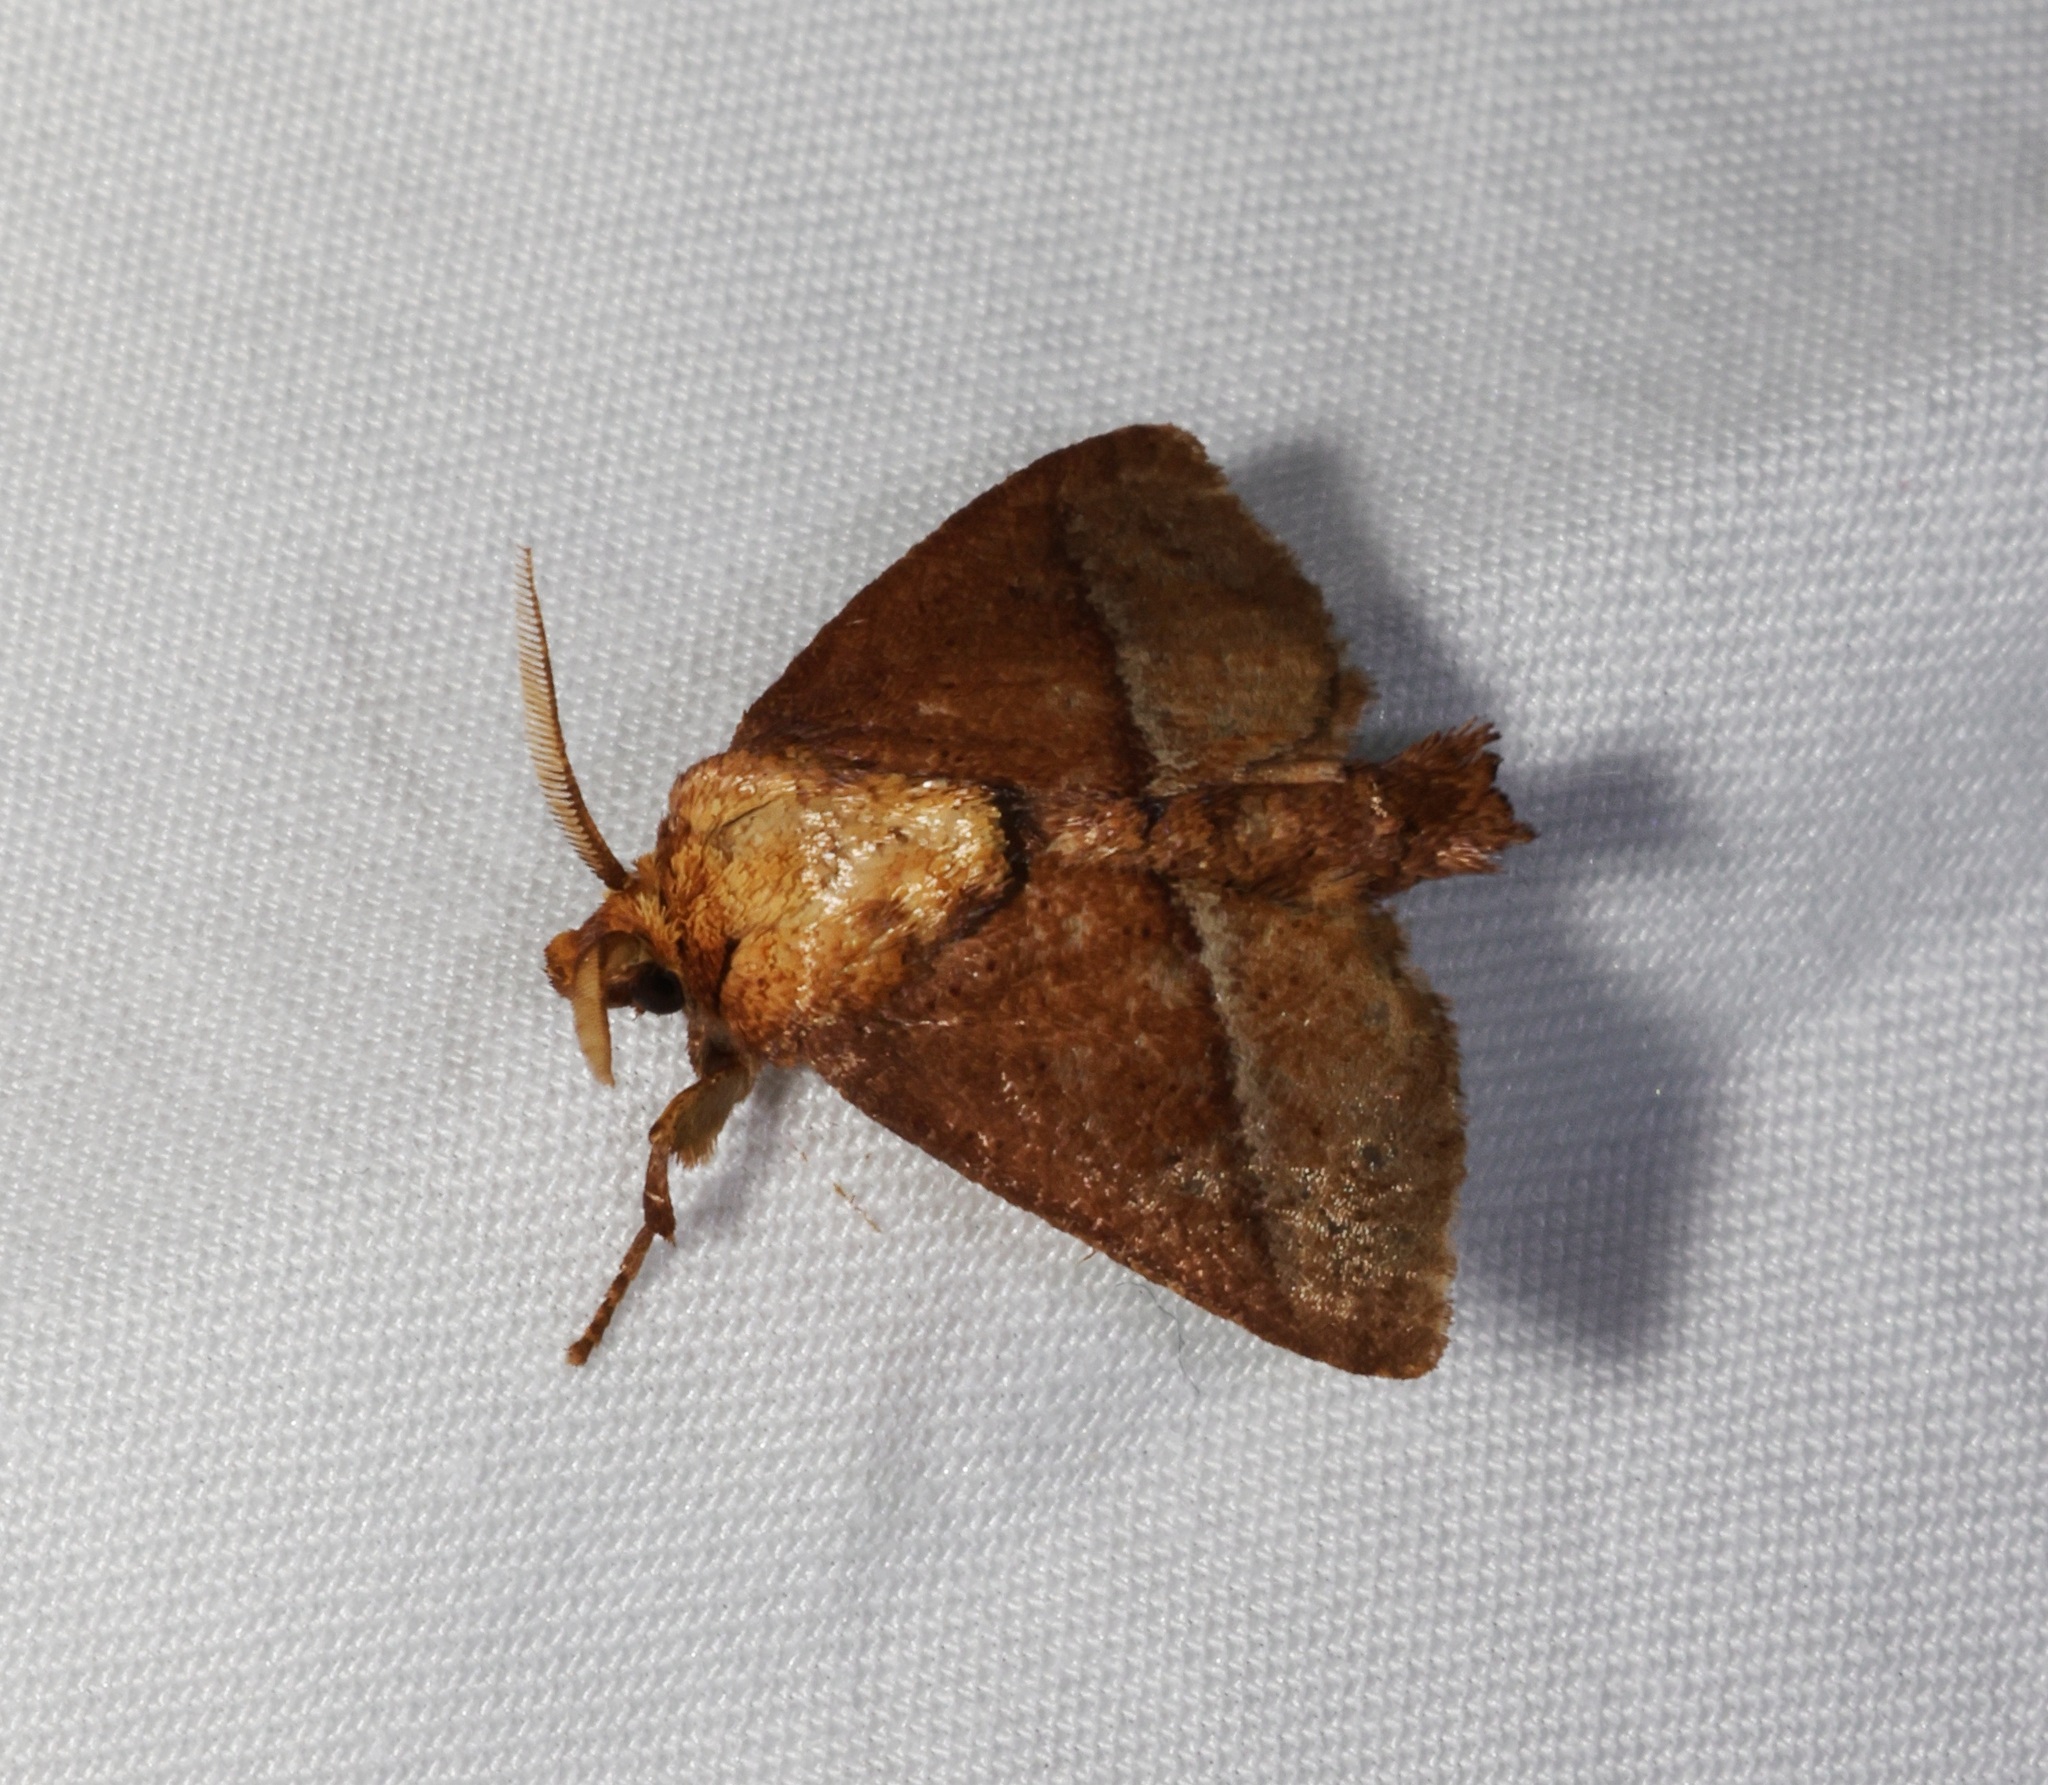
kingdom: Animalia
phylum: Arthropoda
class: Insecta
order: Lepidoptera
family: Limacodidae
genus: Birthamula
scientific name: Birthamula rufa
